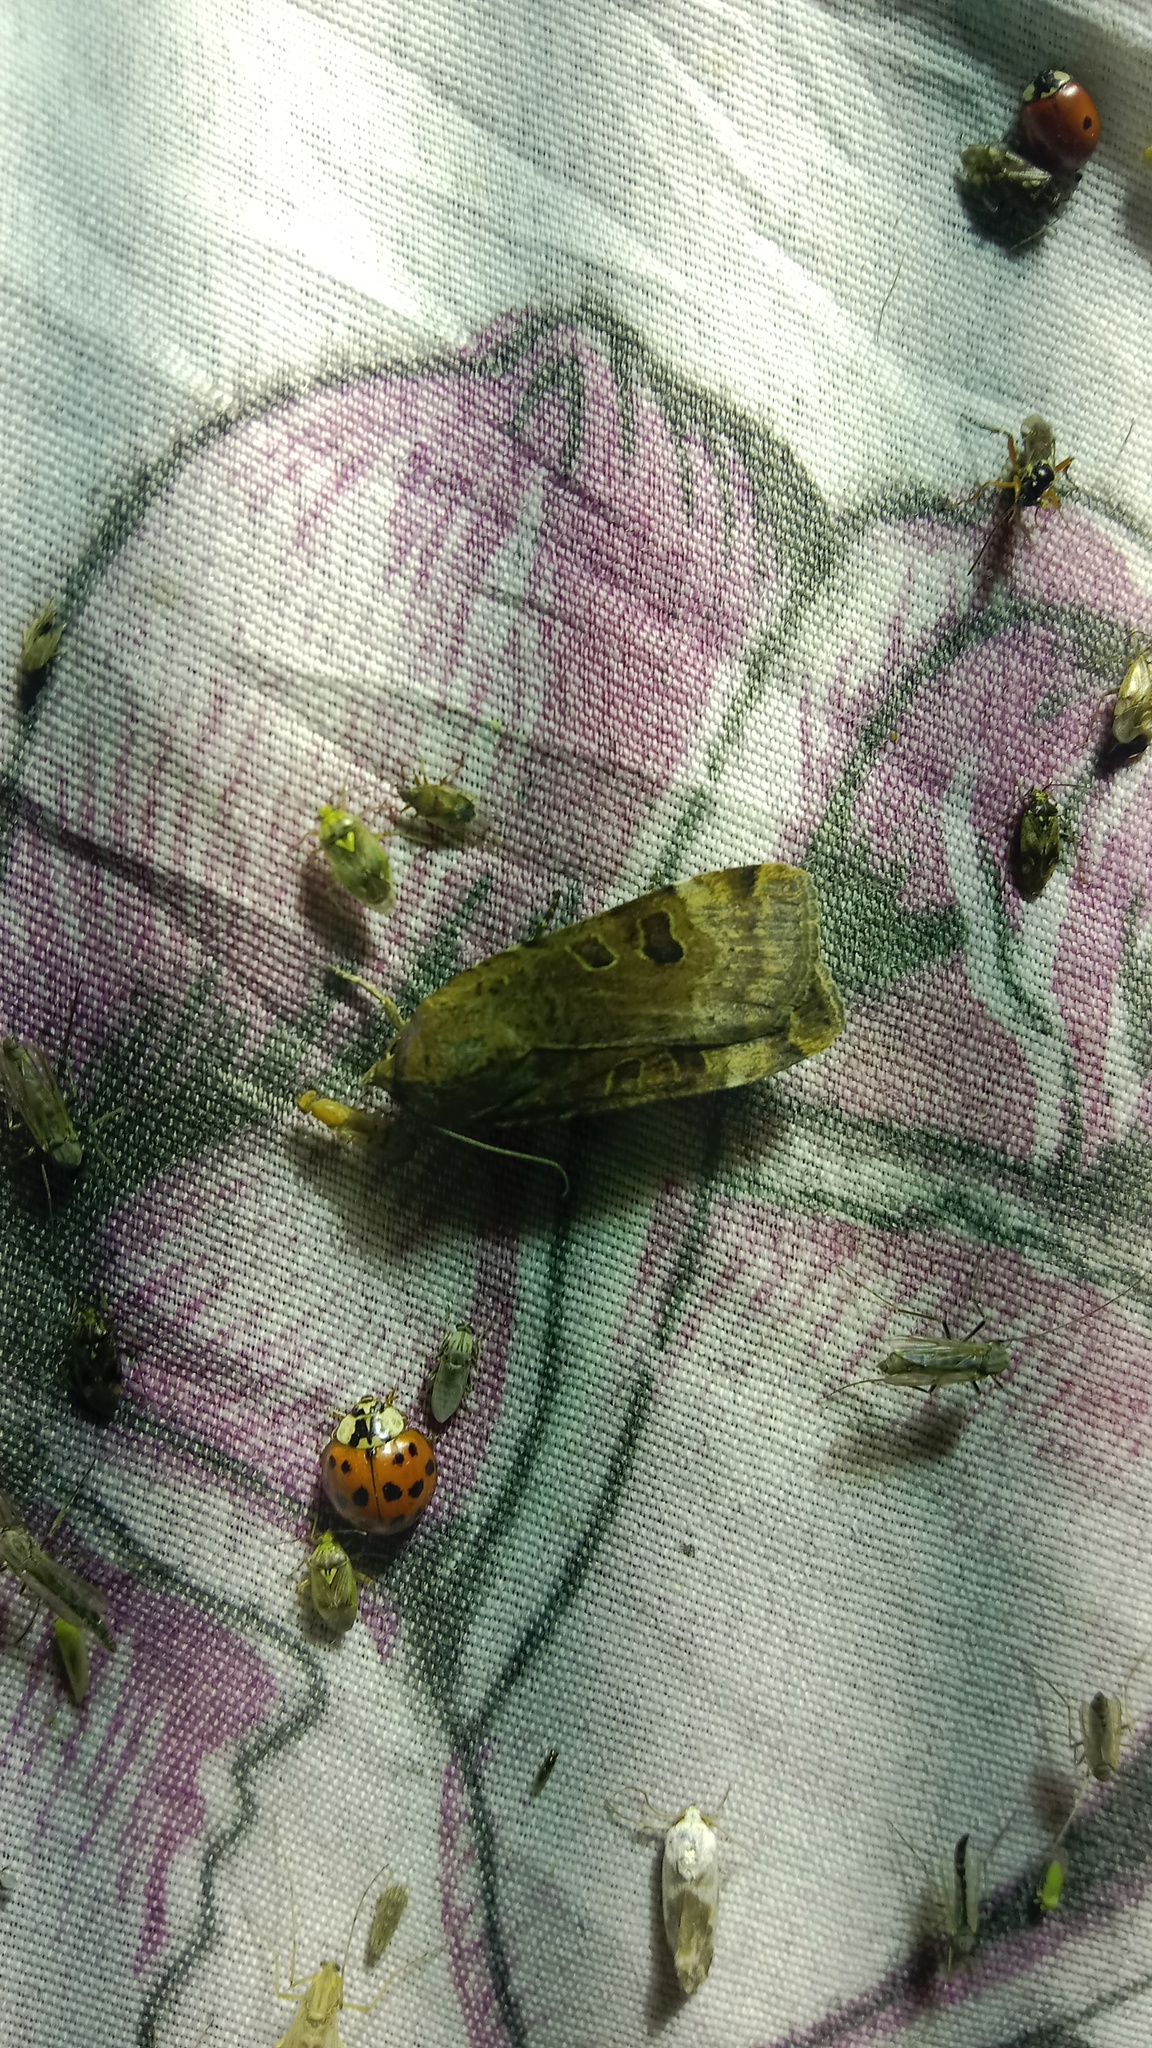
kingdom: Animalia
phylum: Arthropoda
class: Insecta
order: Lepidoptera
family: Noctuidae
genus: Noctua
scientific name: Noctua interposita
